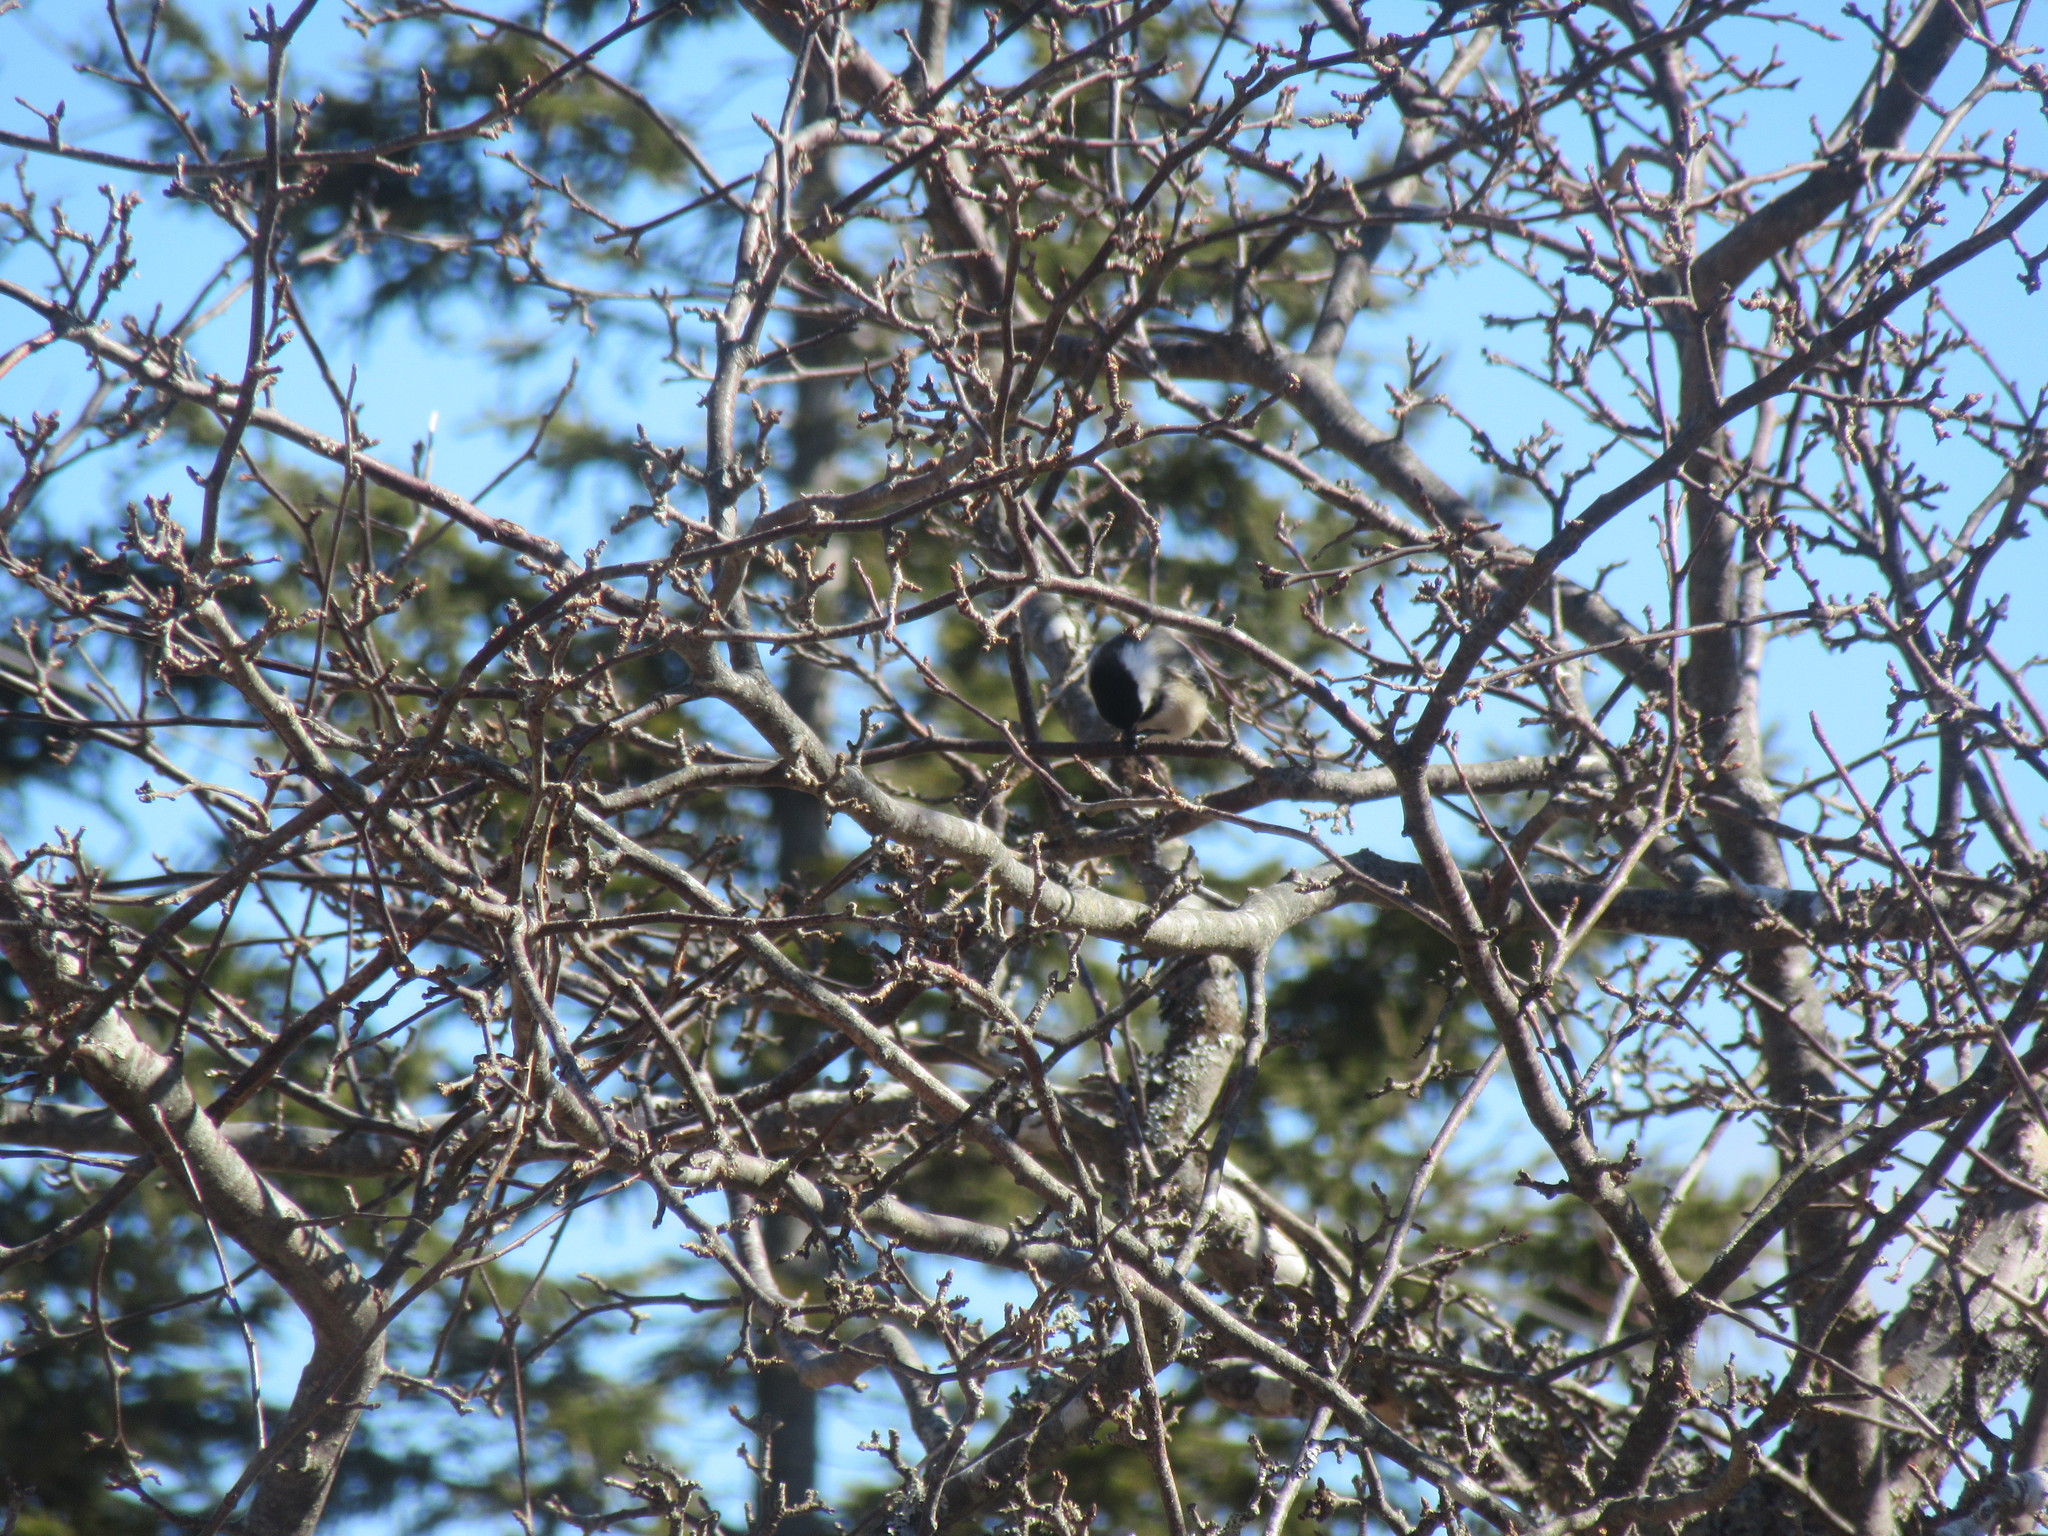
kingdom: Animalia
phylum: Chordata
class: Aves
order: Passeriformes
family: Paridae
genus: Poecile
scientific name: Poecile atricapillus
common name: Black-capped chickadee
